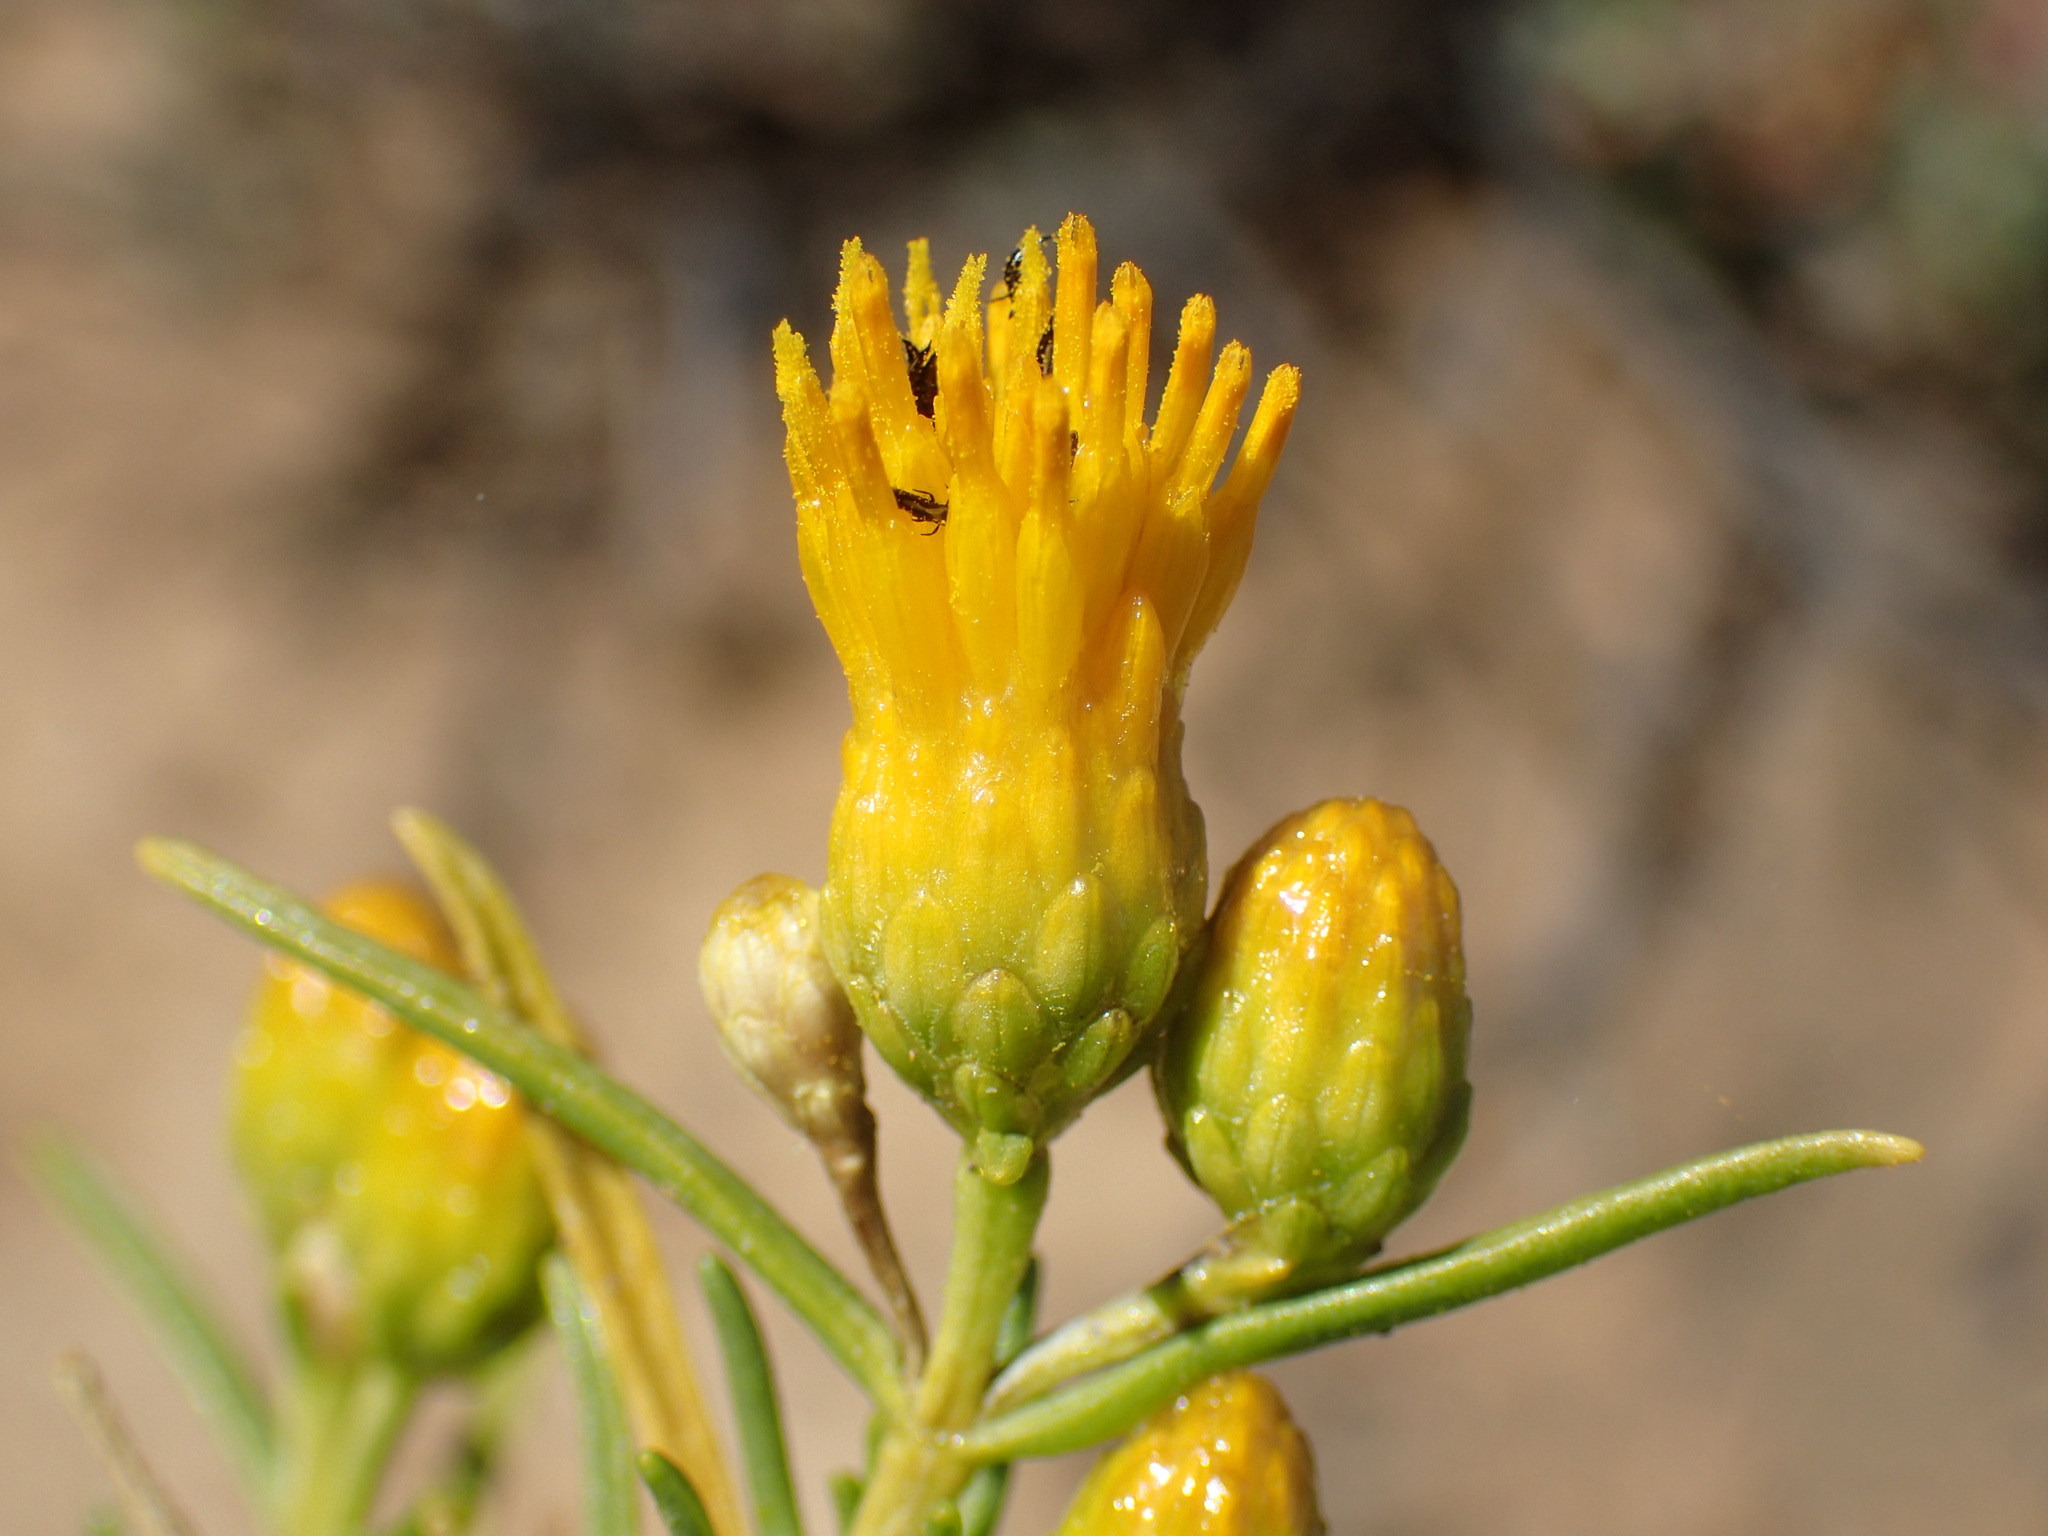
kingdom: Plantae
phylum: Tracheophyta
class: Magnoliopsida
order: Asterales
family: Asteraceae
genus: Pteronia
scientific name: Pteronia pallens
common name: Scholtzbush
